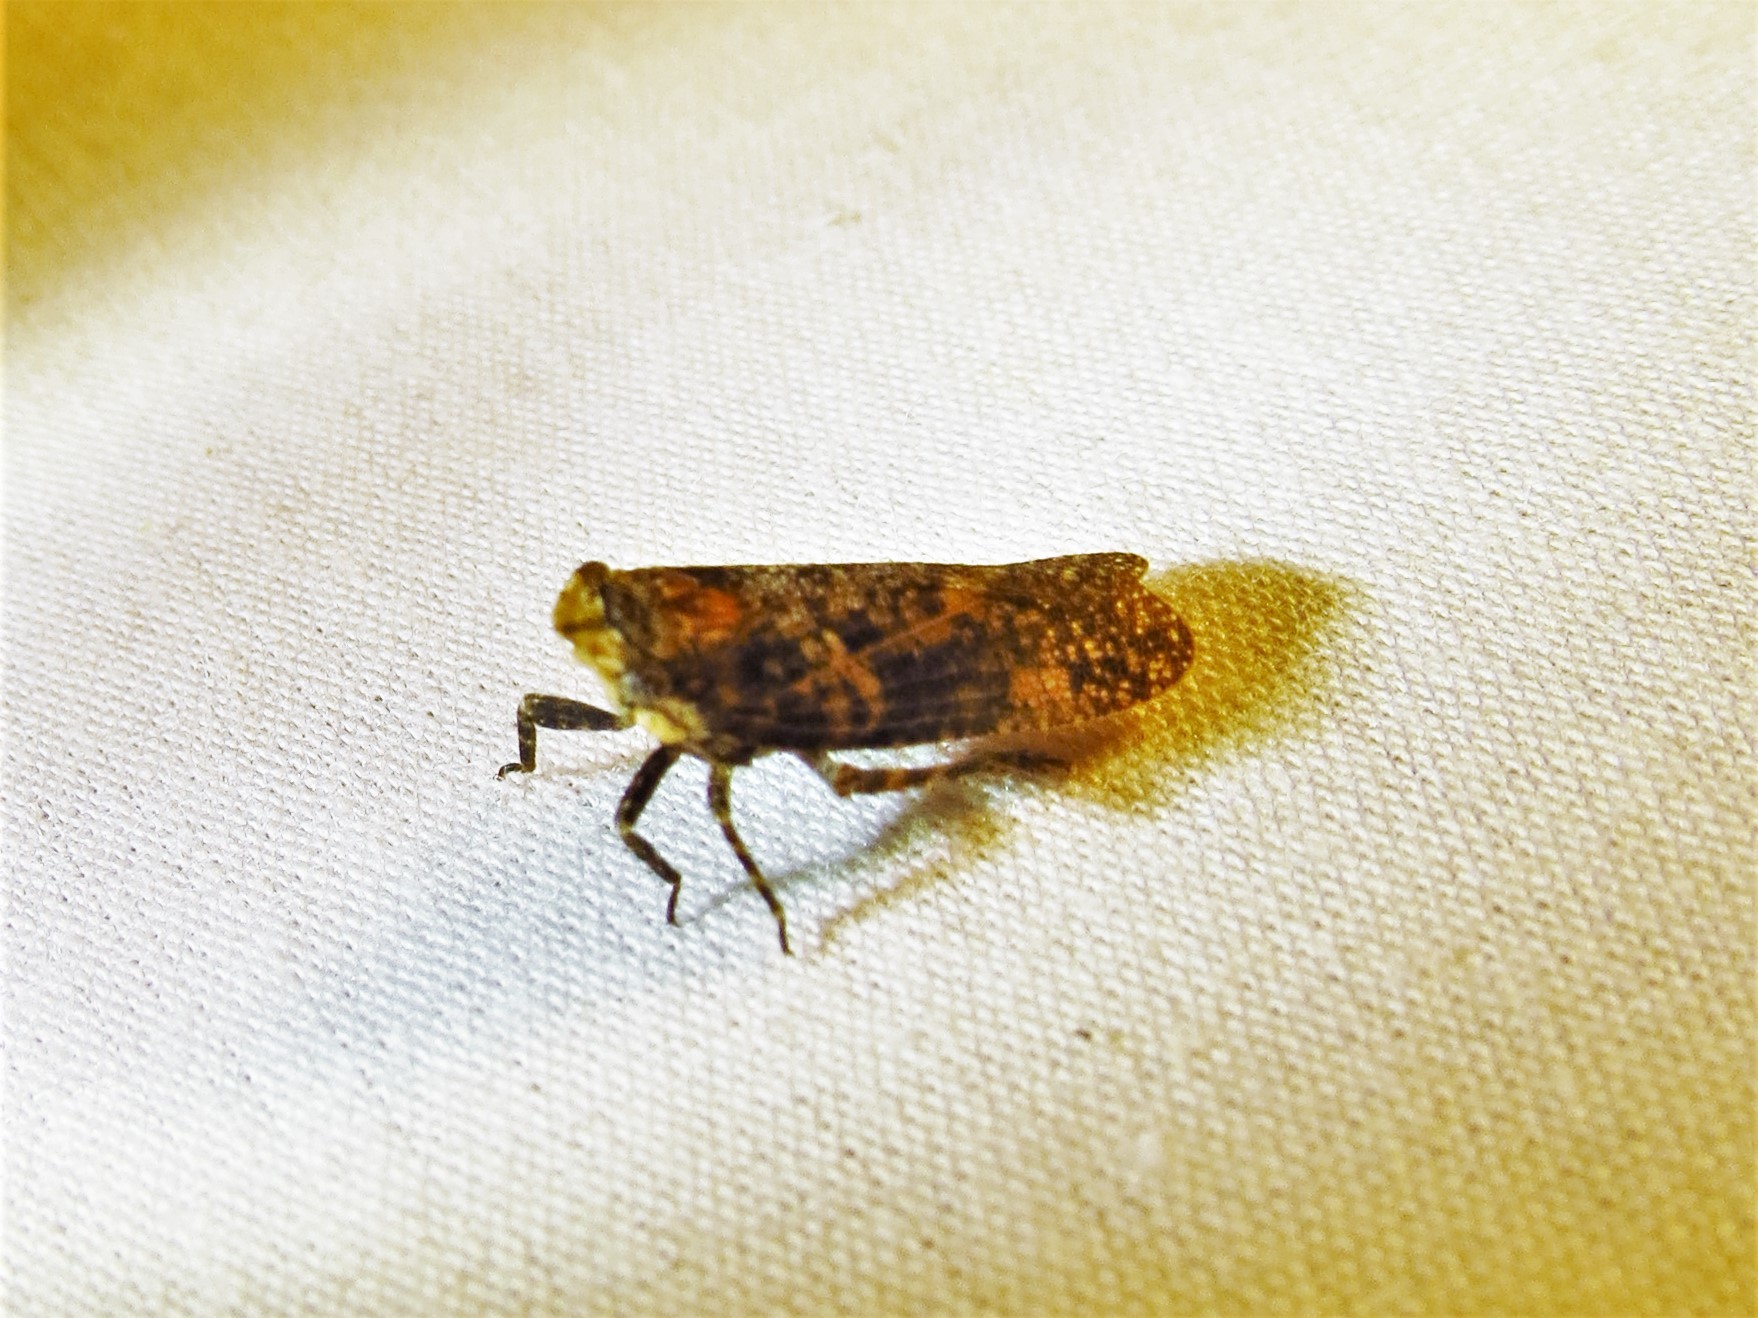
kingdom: Animalia
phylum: Arthropoda
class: Insecta
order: Hemiptera
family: Fulgoridae
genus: Cyrpoptus
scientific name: Cyrpoptus vanduzeei
